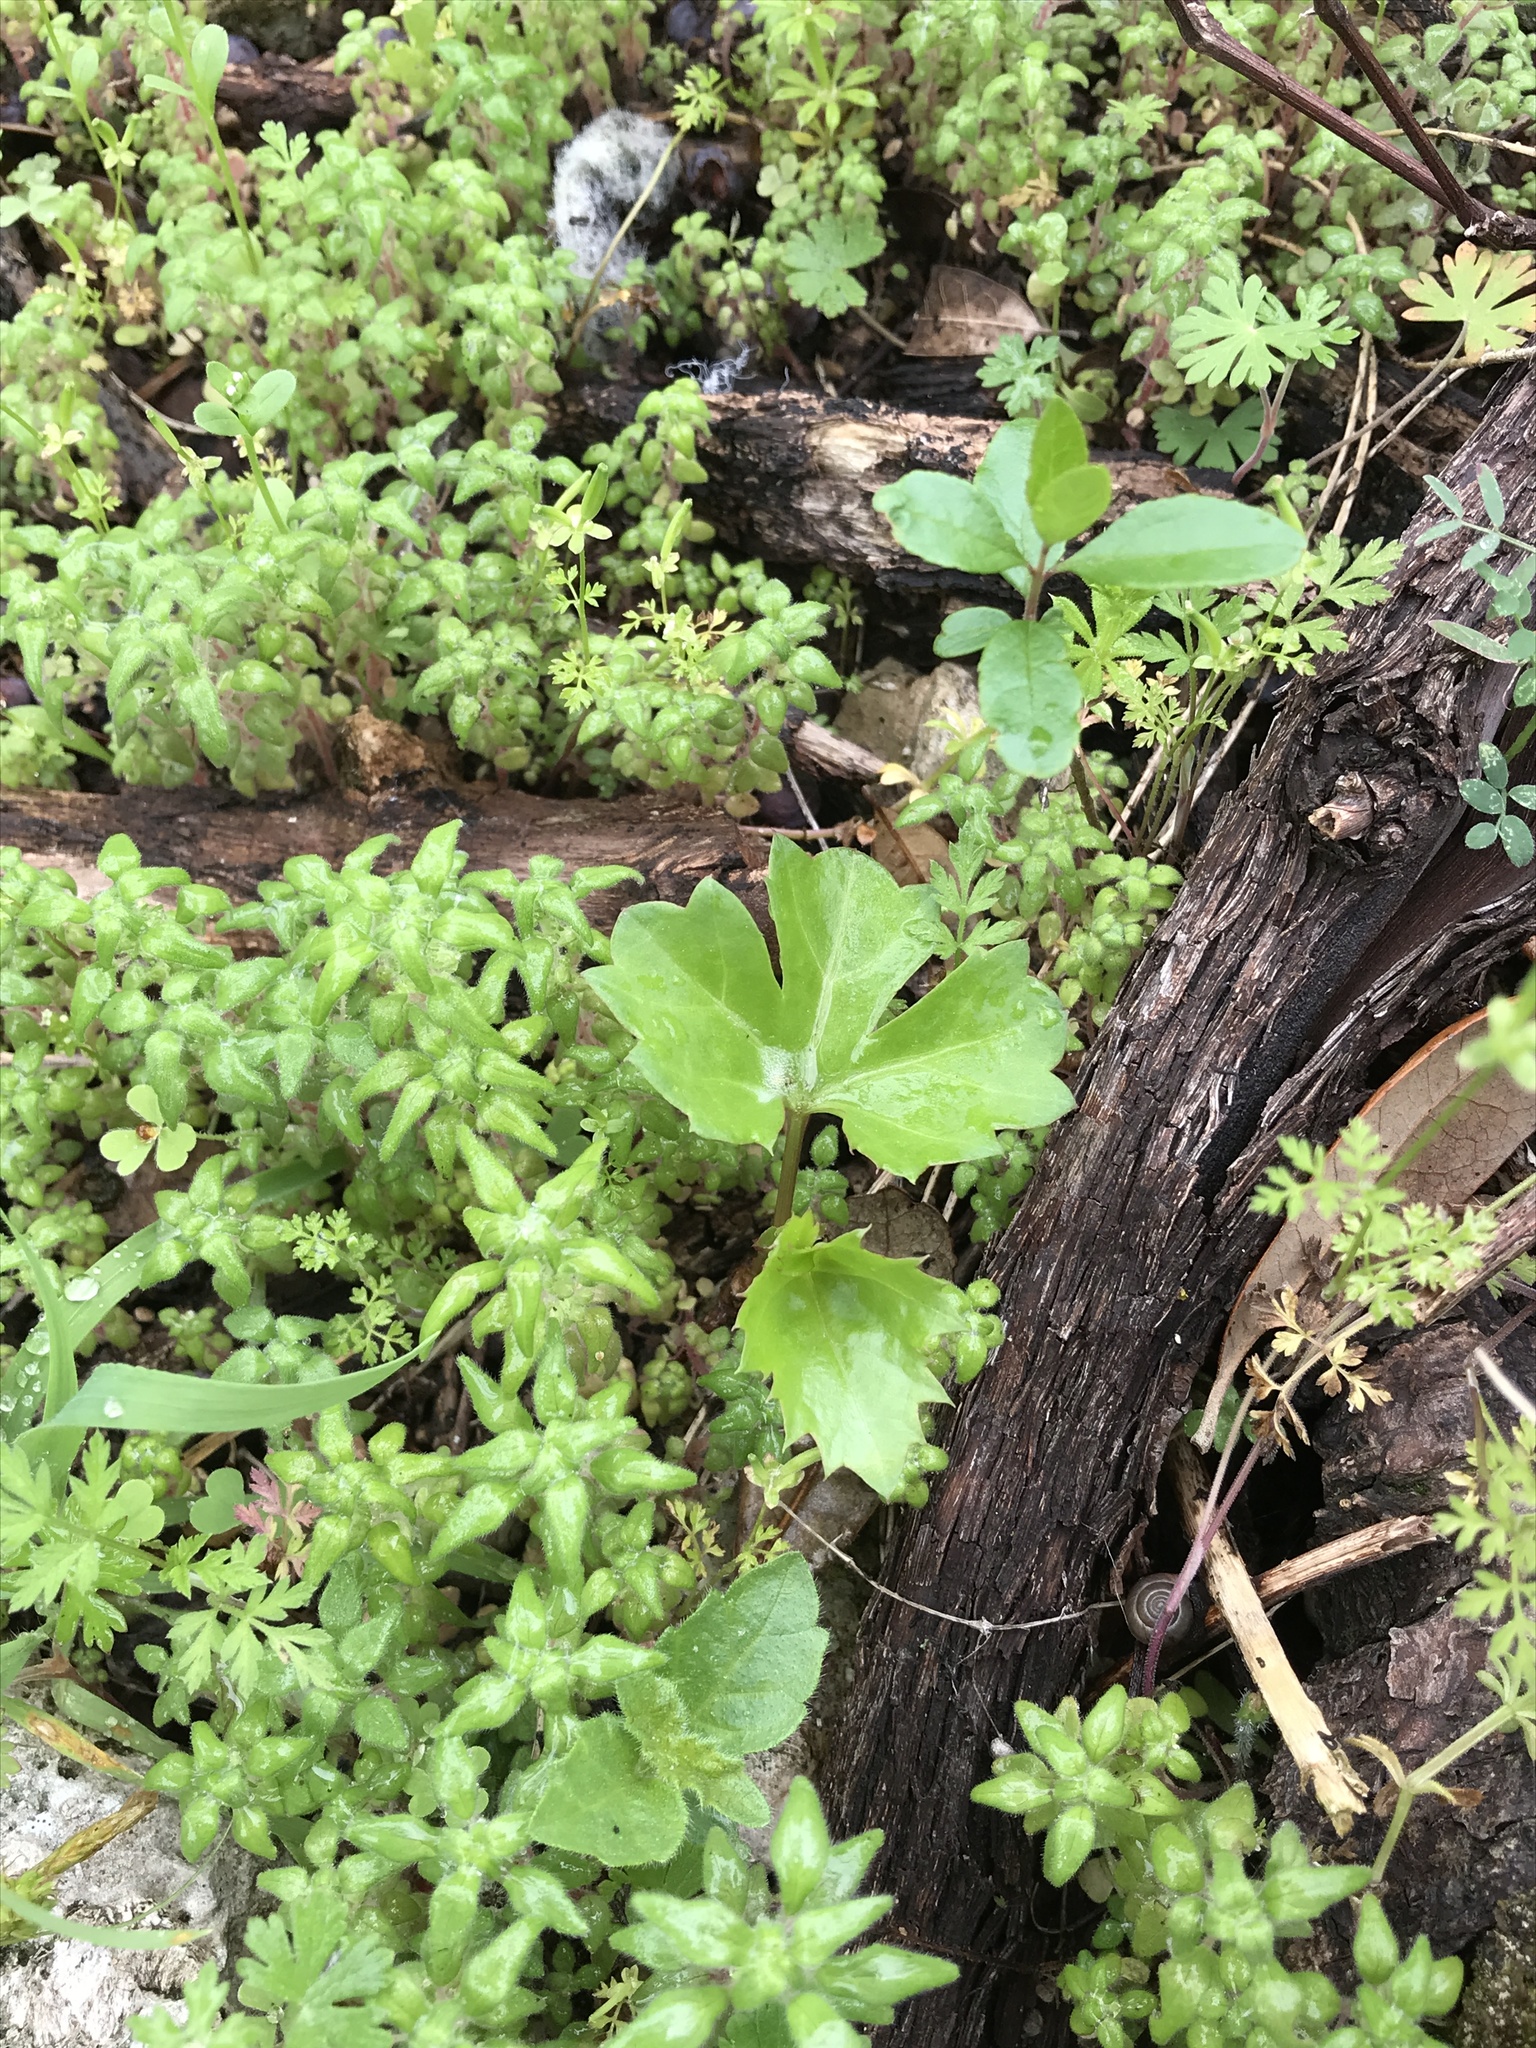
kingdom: Plantae
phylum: Tracheophyta
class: Magnoliopsida
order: Vitales
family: Vitaceae
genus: Cissus
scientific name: Cissus trifoliata
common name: Vine-sorrel
